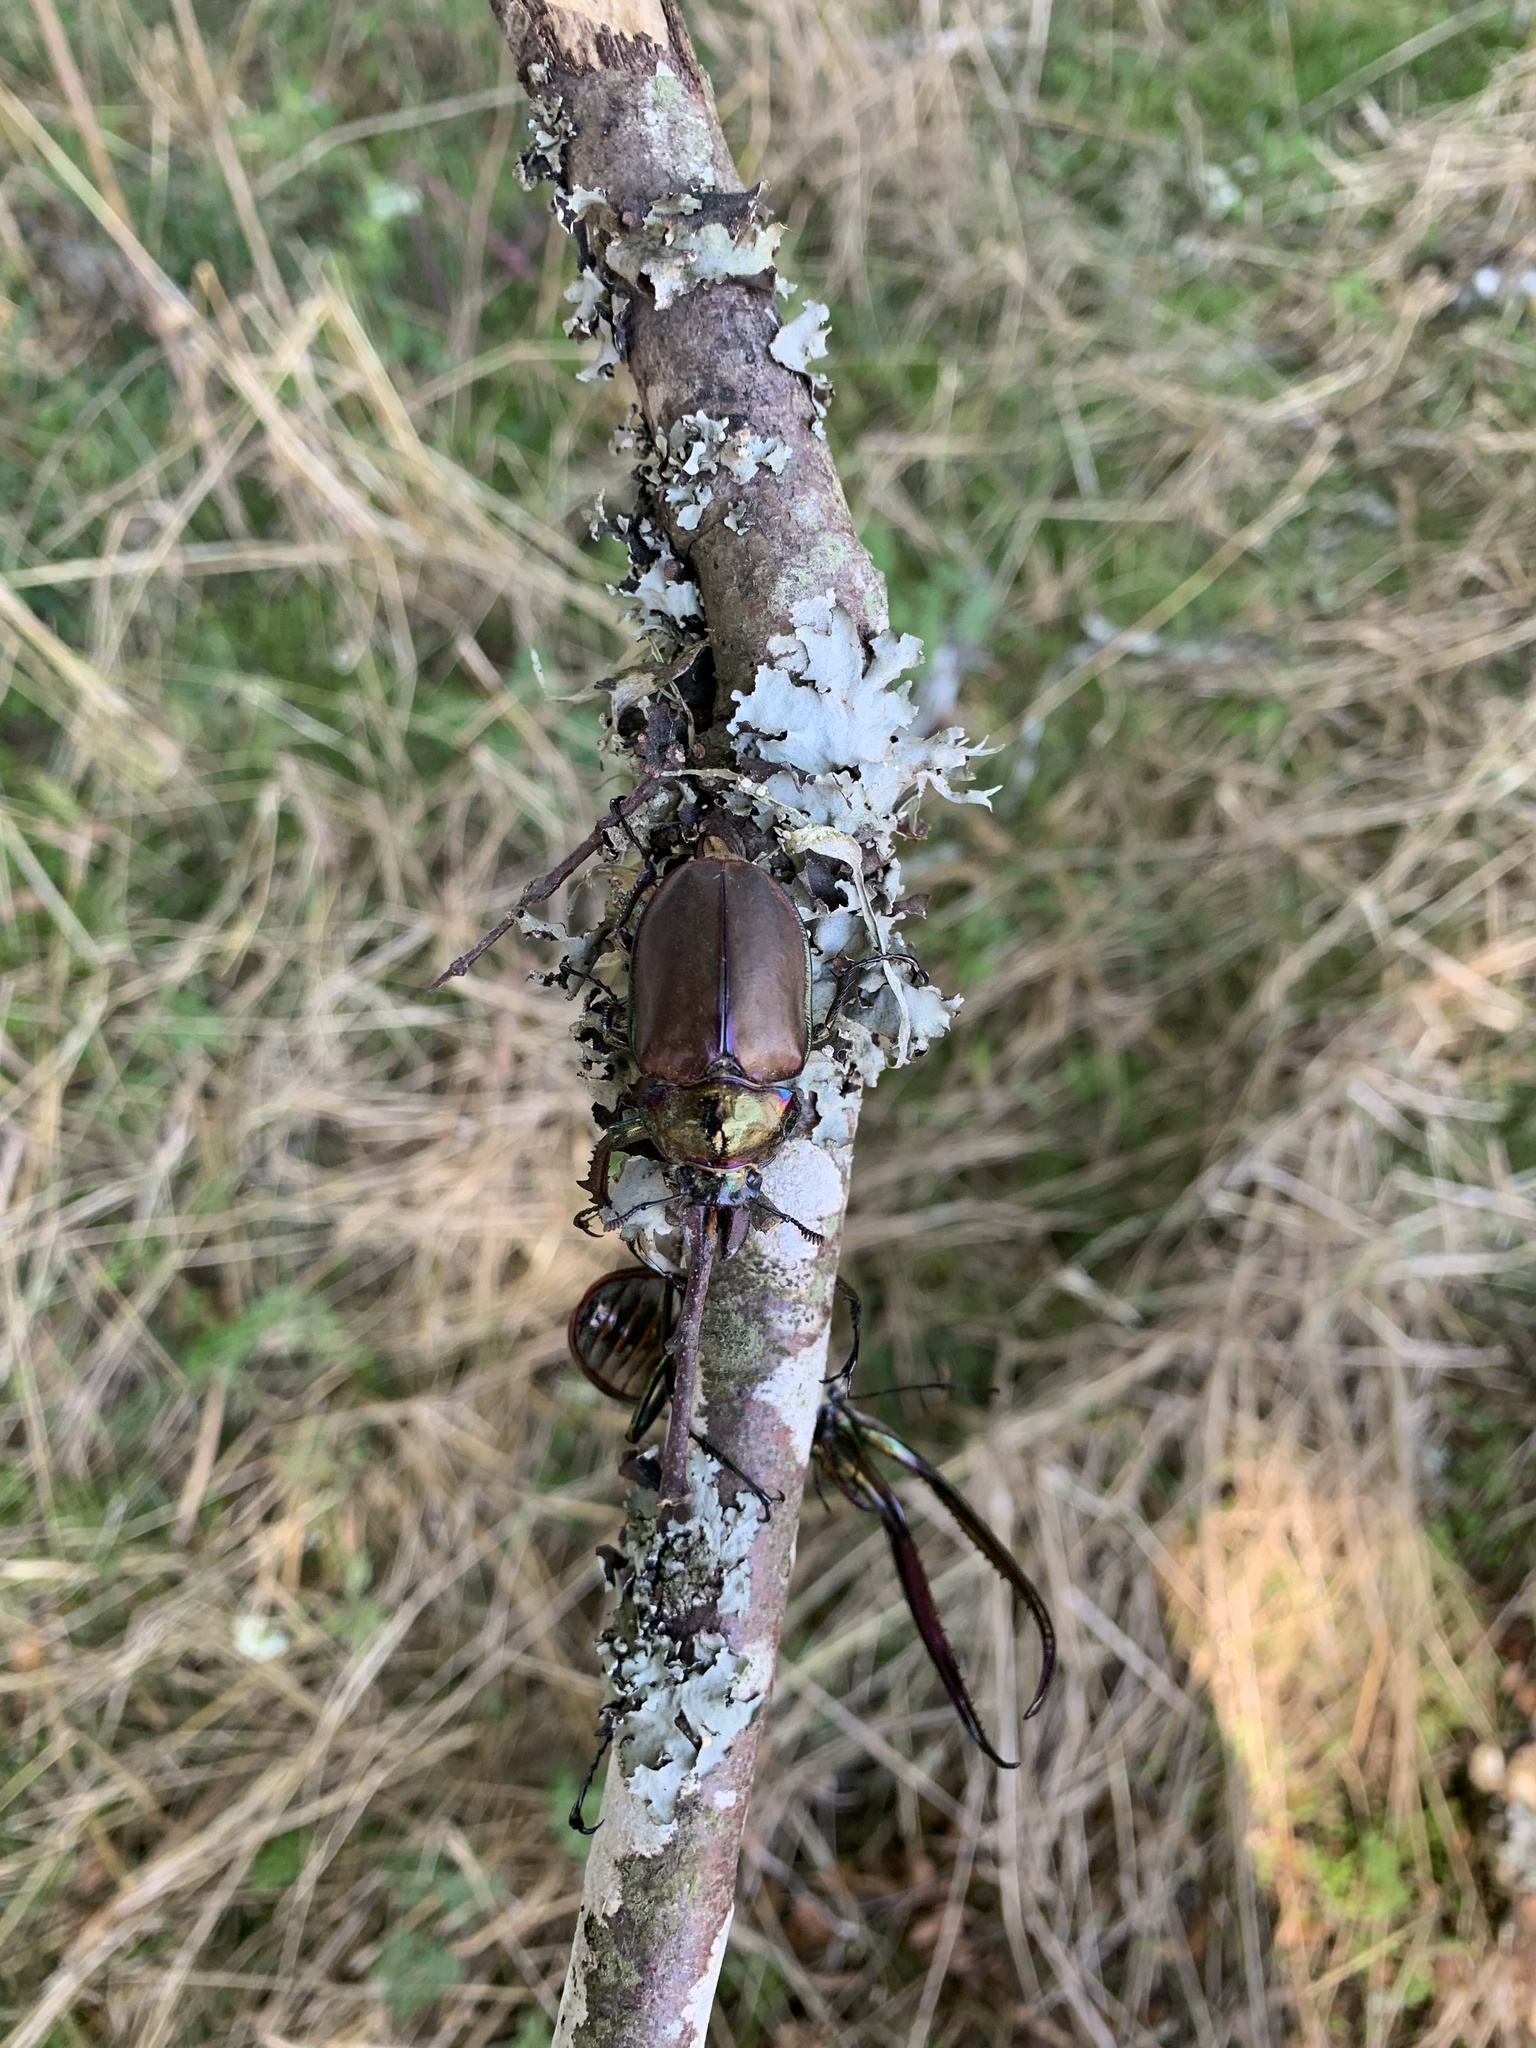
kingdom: Animalia
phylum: Arthropoda
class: Insecta
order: Coleoptera
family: Lucanidae
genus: Chiasognathus
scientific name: Chiasognathus grantii
